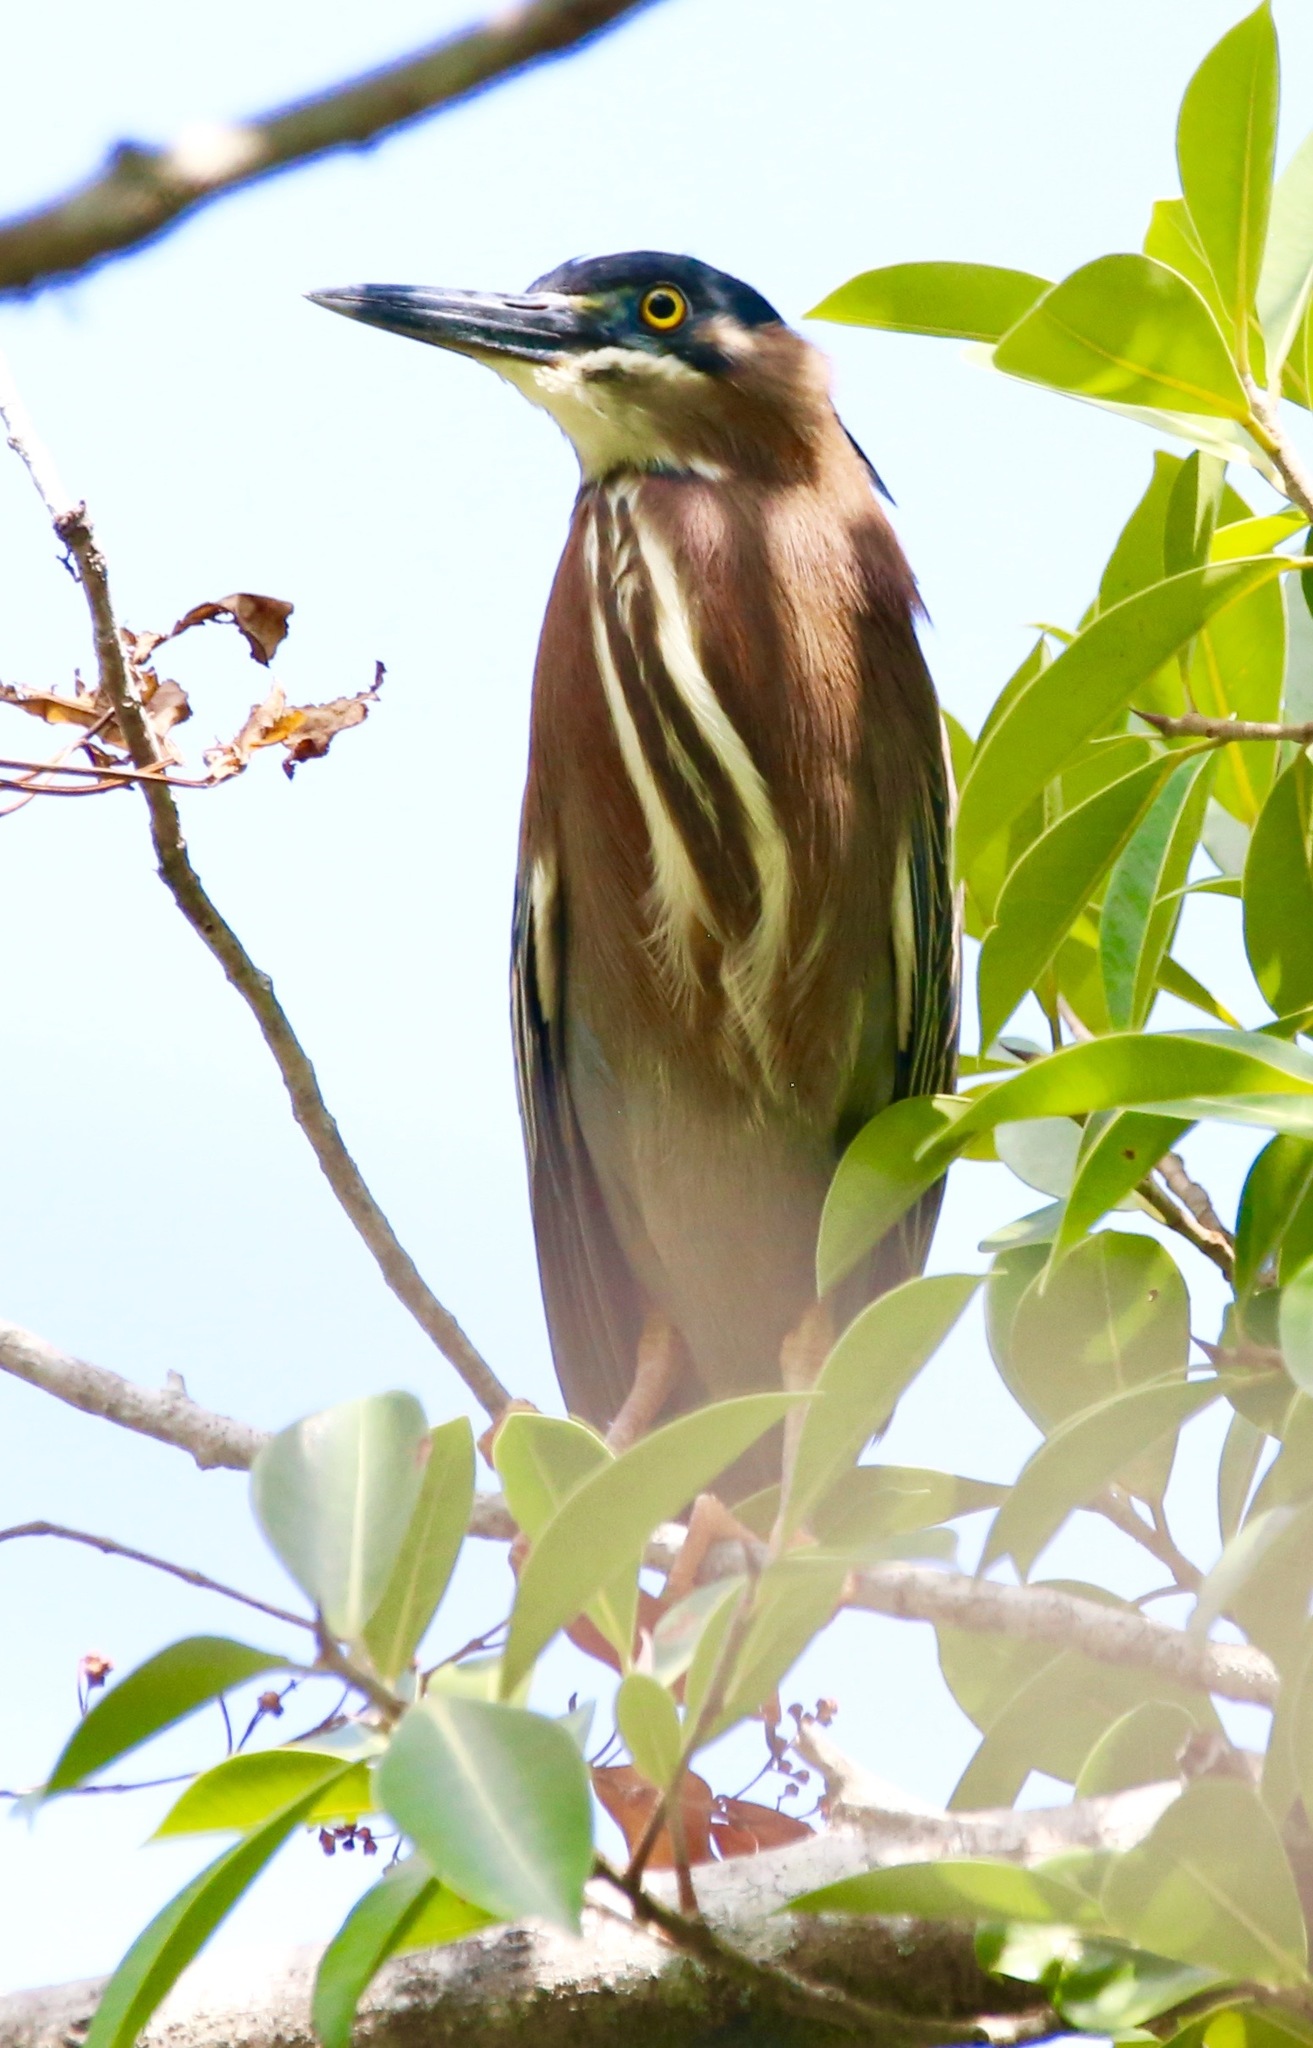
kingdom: Animalia
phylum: Chordata
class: Aves
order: Pelecaniformes
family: Ardeidae
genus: Butorides
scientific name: Butorides virescens
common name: Green heron
